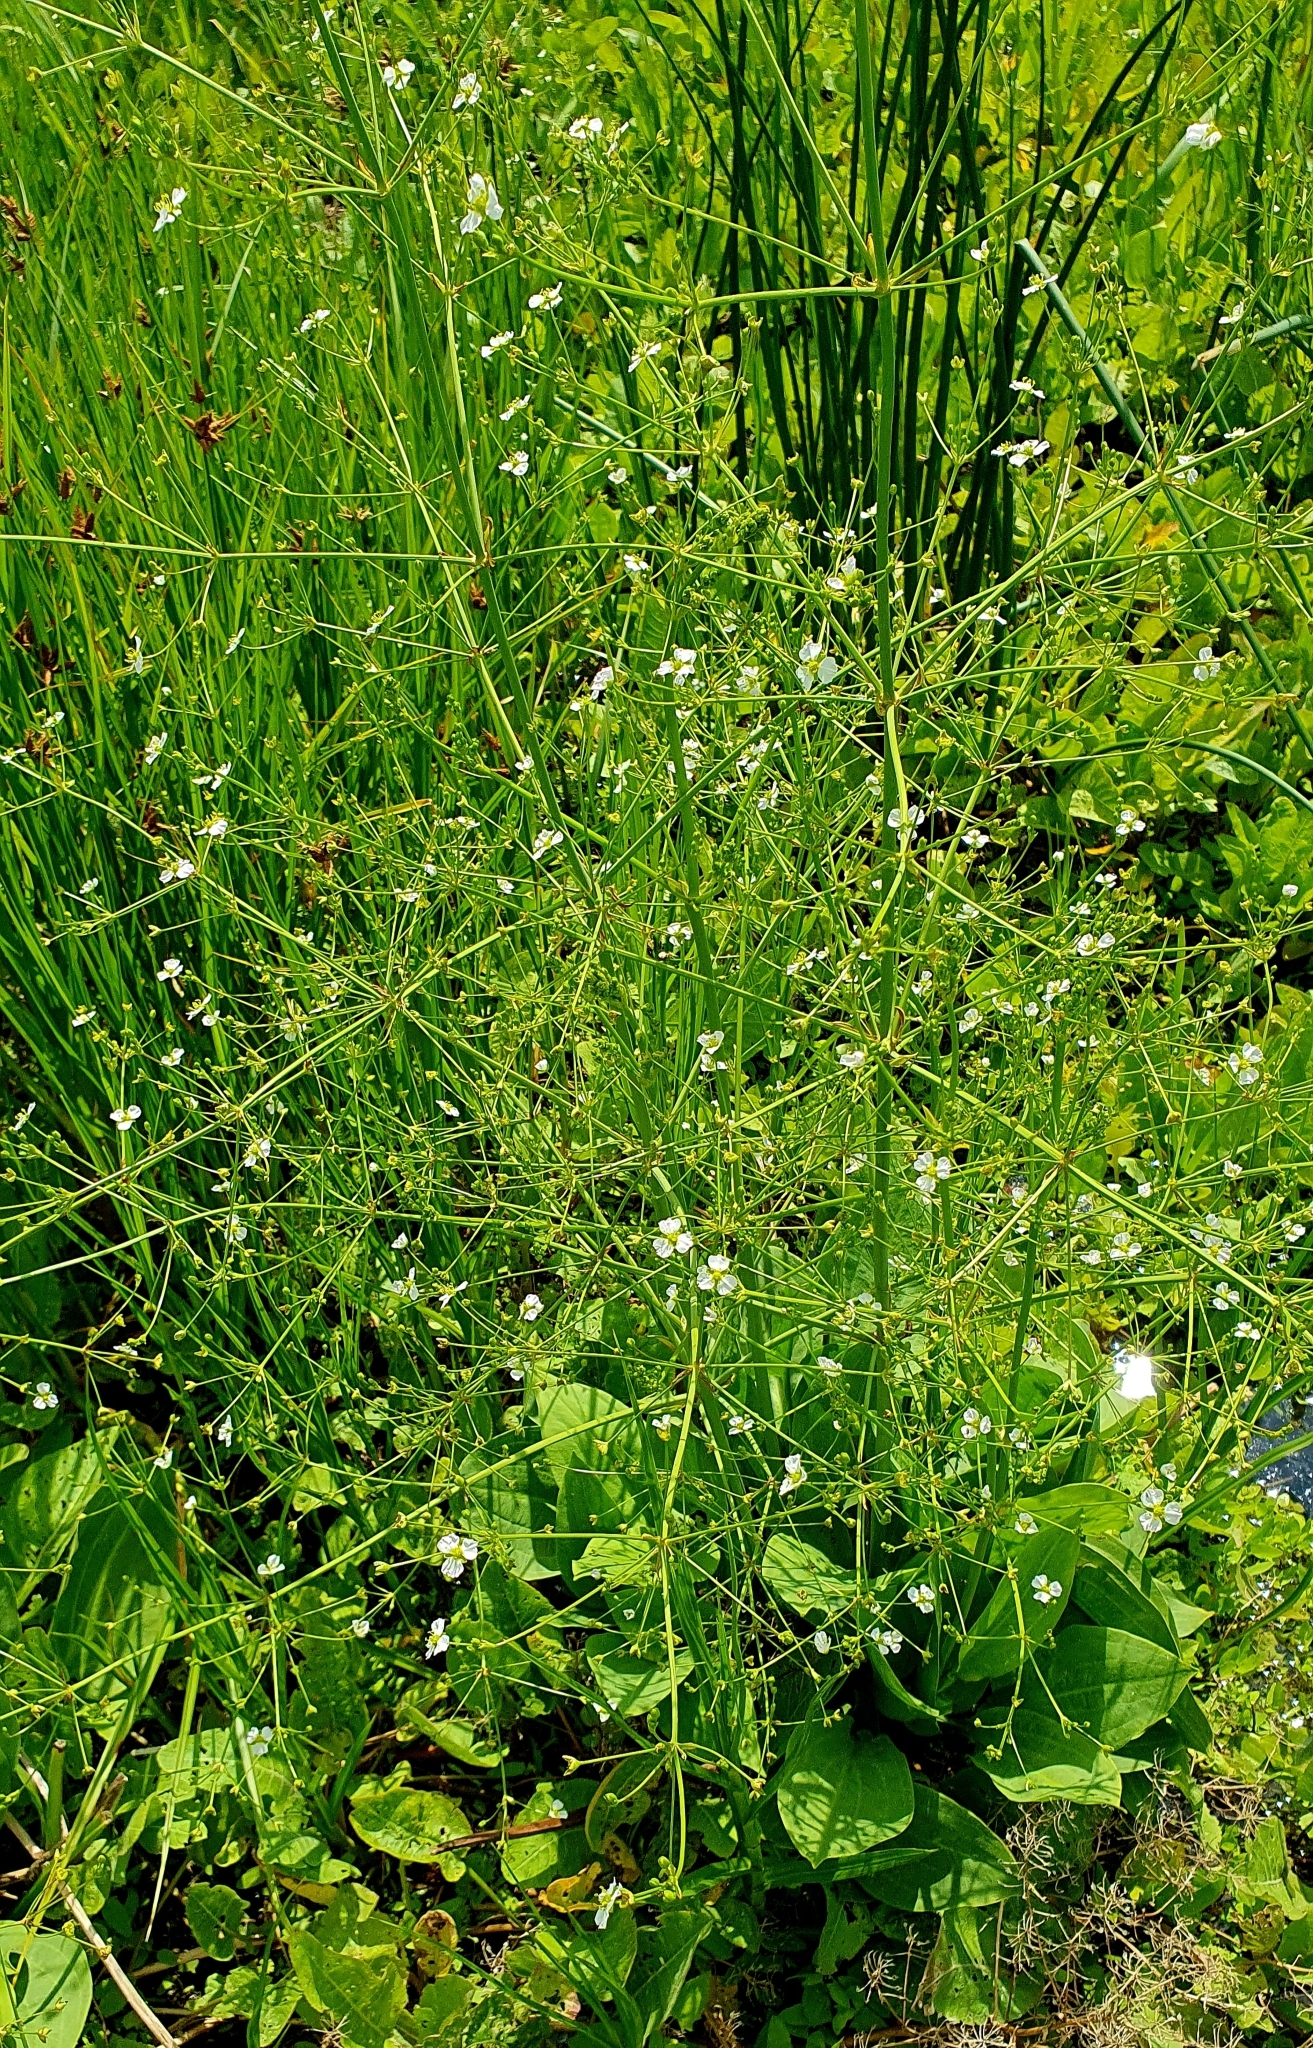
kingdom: Plantae
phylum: Tracheophyta
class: Liliopsida
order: Alismatales
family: Alismataceae
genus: Alisma
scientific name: Alisma plantago-aquatica
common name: Water-plantain
